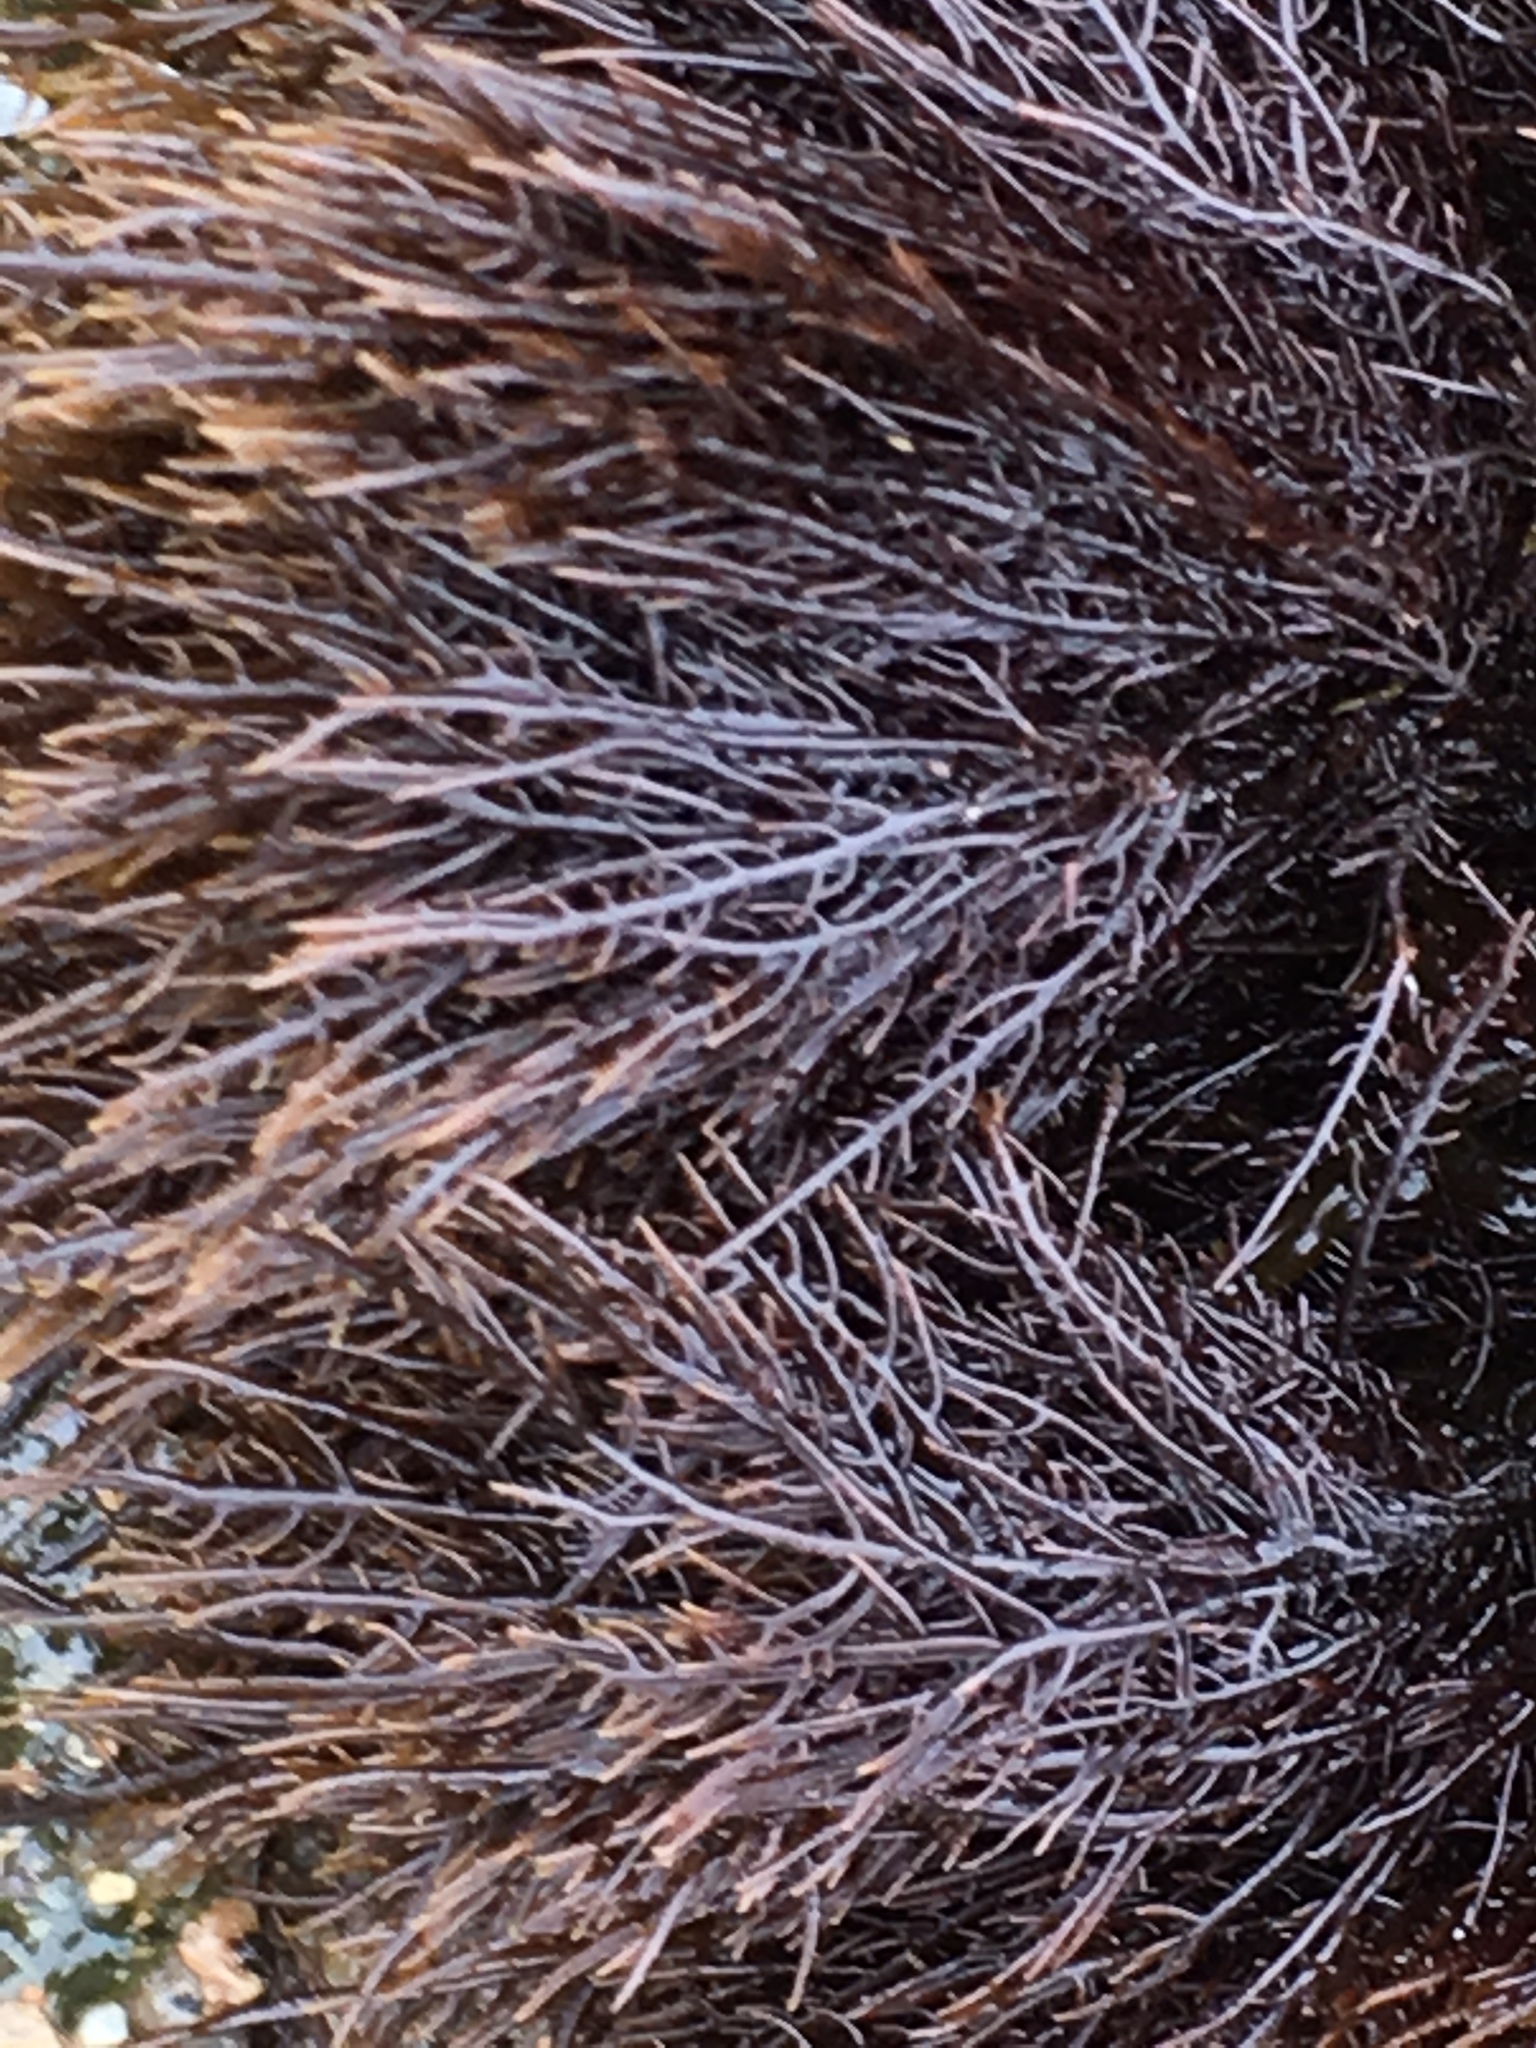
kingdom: Plantae
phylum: Rhodophyta
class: Florideophyceae
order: Gelidiales
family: Gelidiaceae
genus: Gelidium
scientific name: Gelidium coulteri
